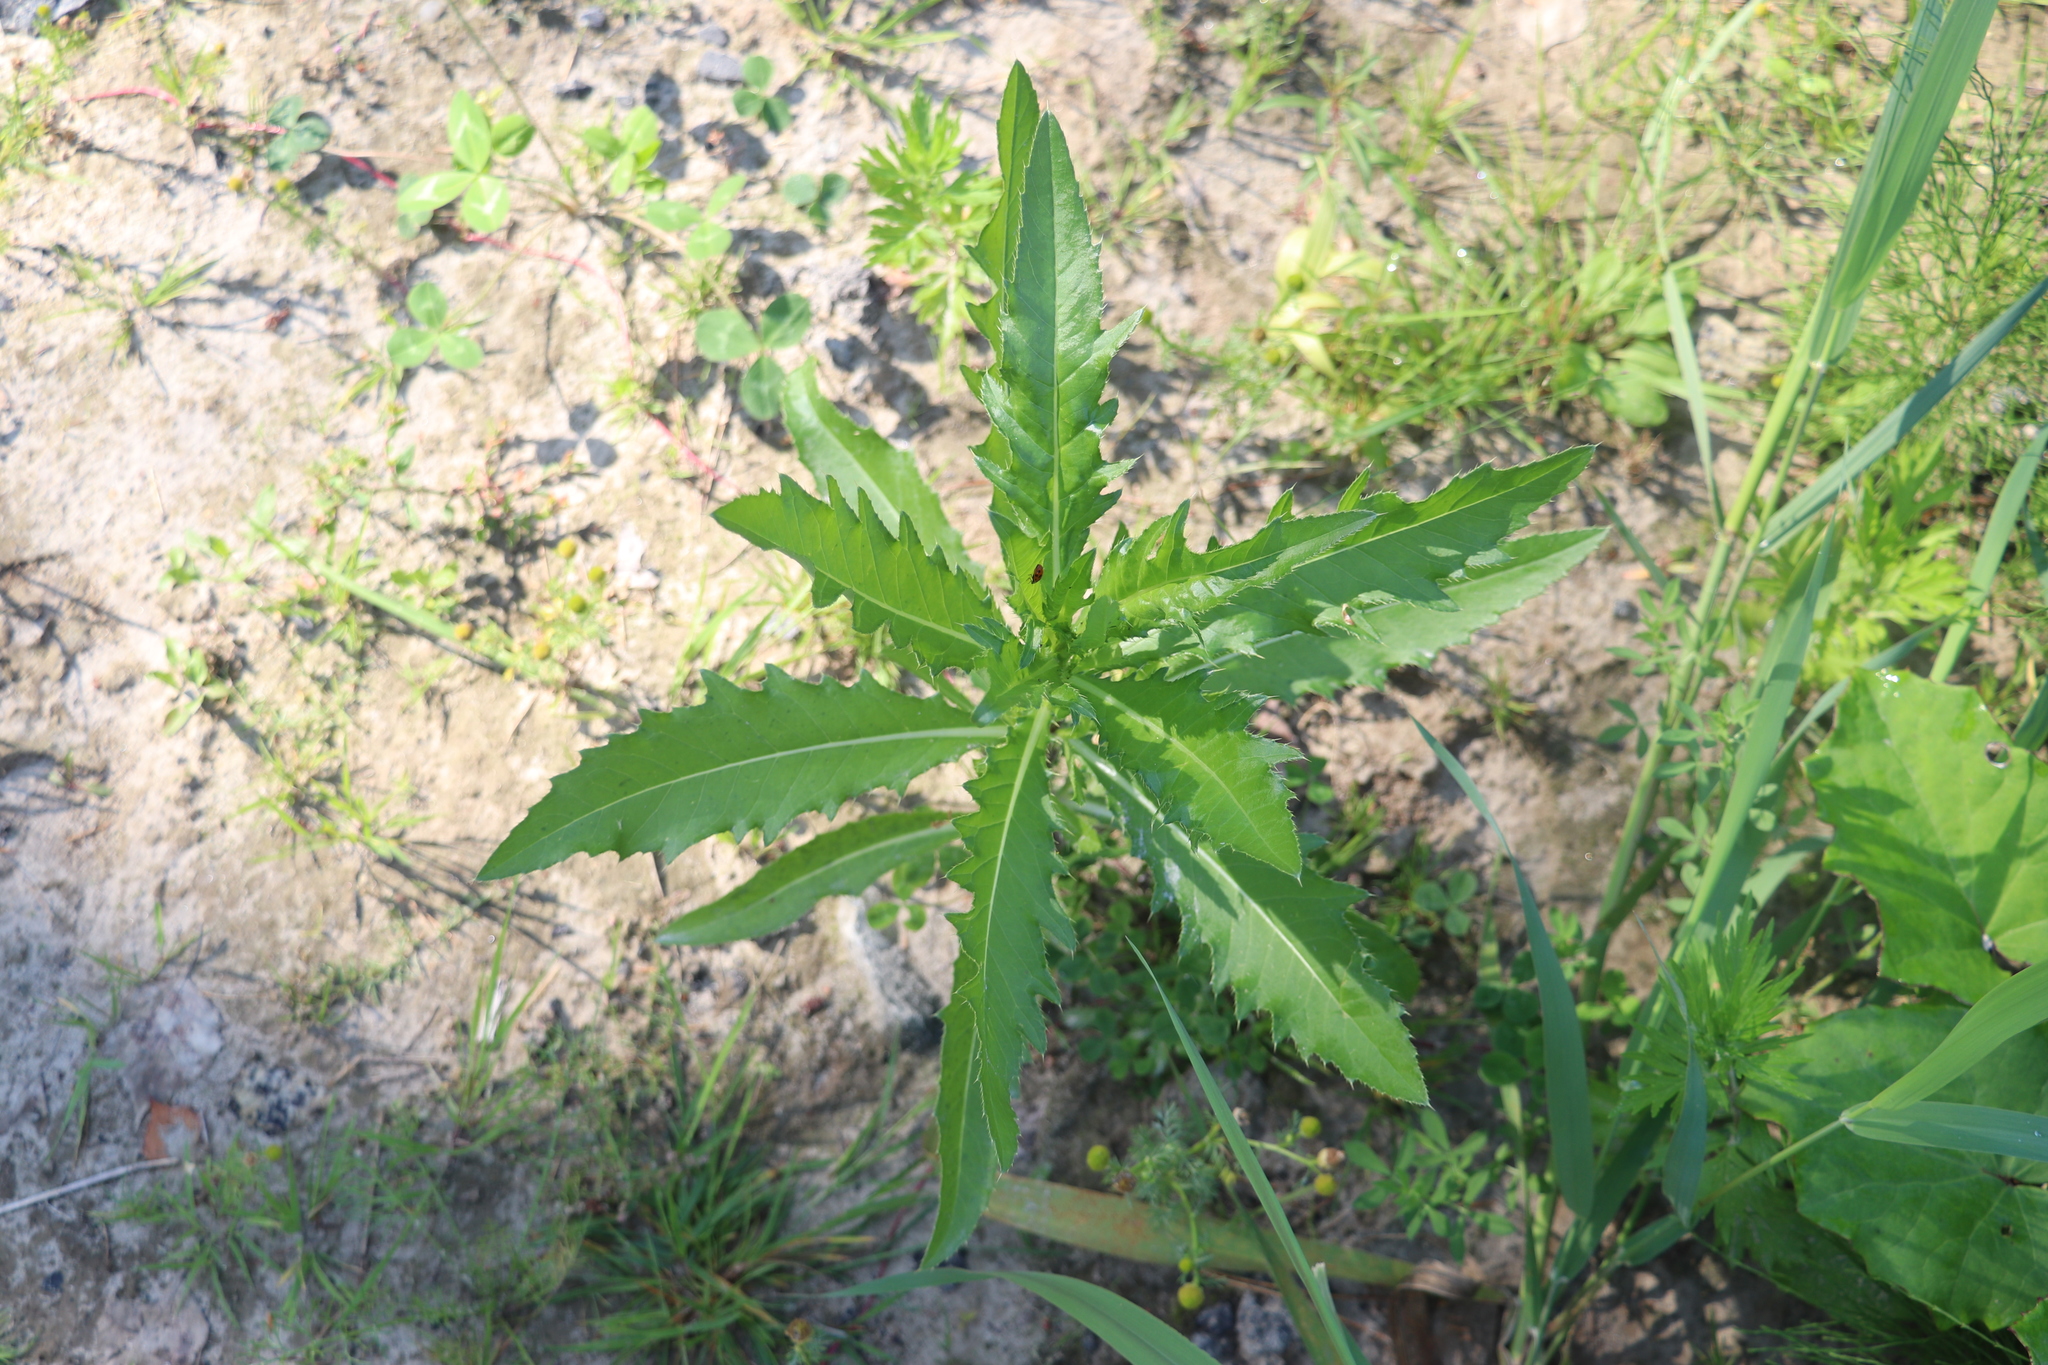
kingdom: Plantae
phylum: Tracheophyta
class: Magnoliopsida
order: Asterales
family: Asteraceae
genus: Cirsium
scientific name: Cirsium arvense
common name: Creeping thistle
